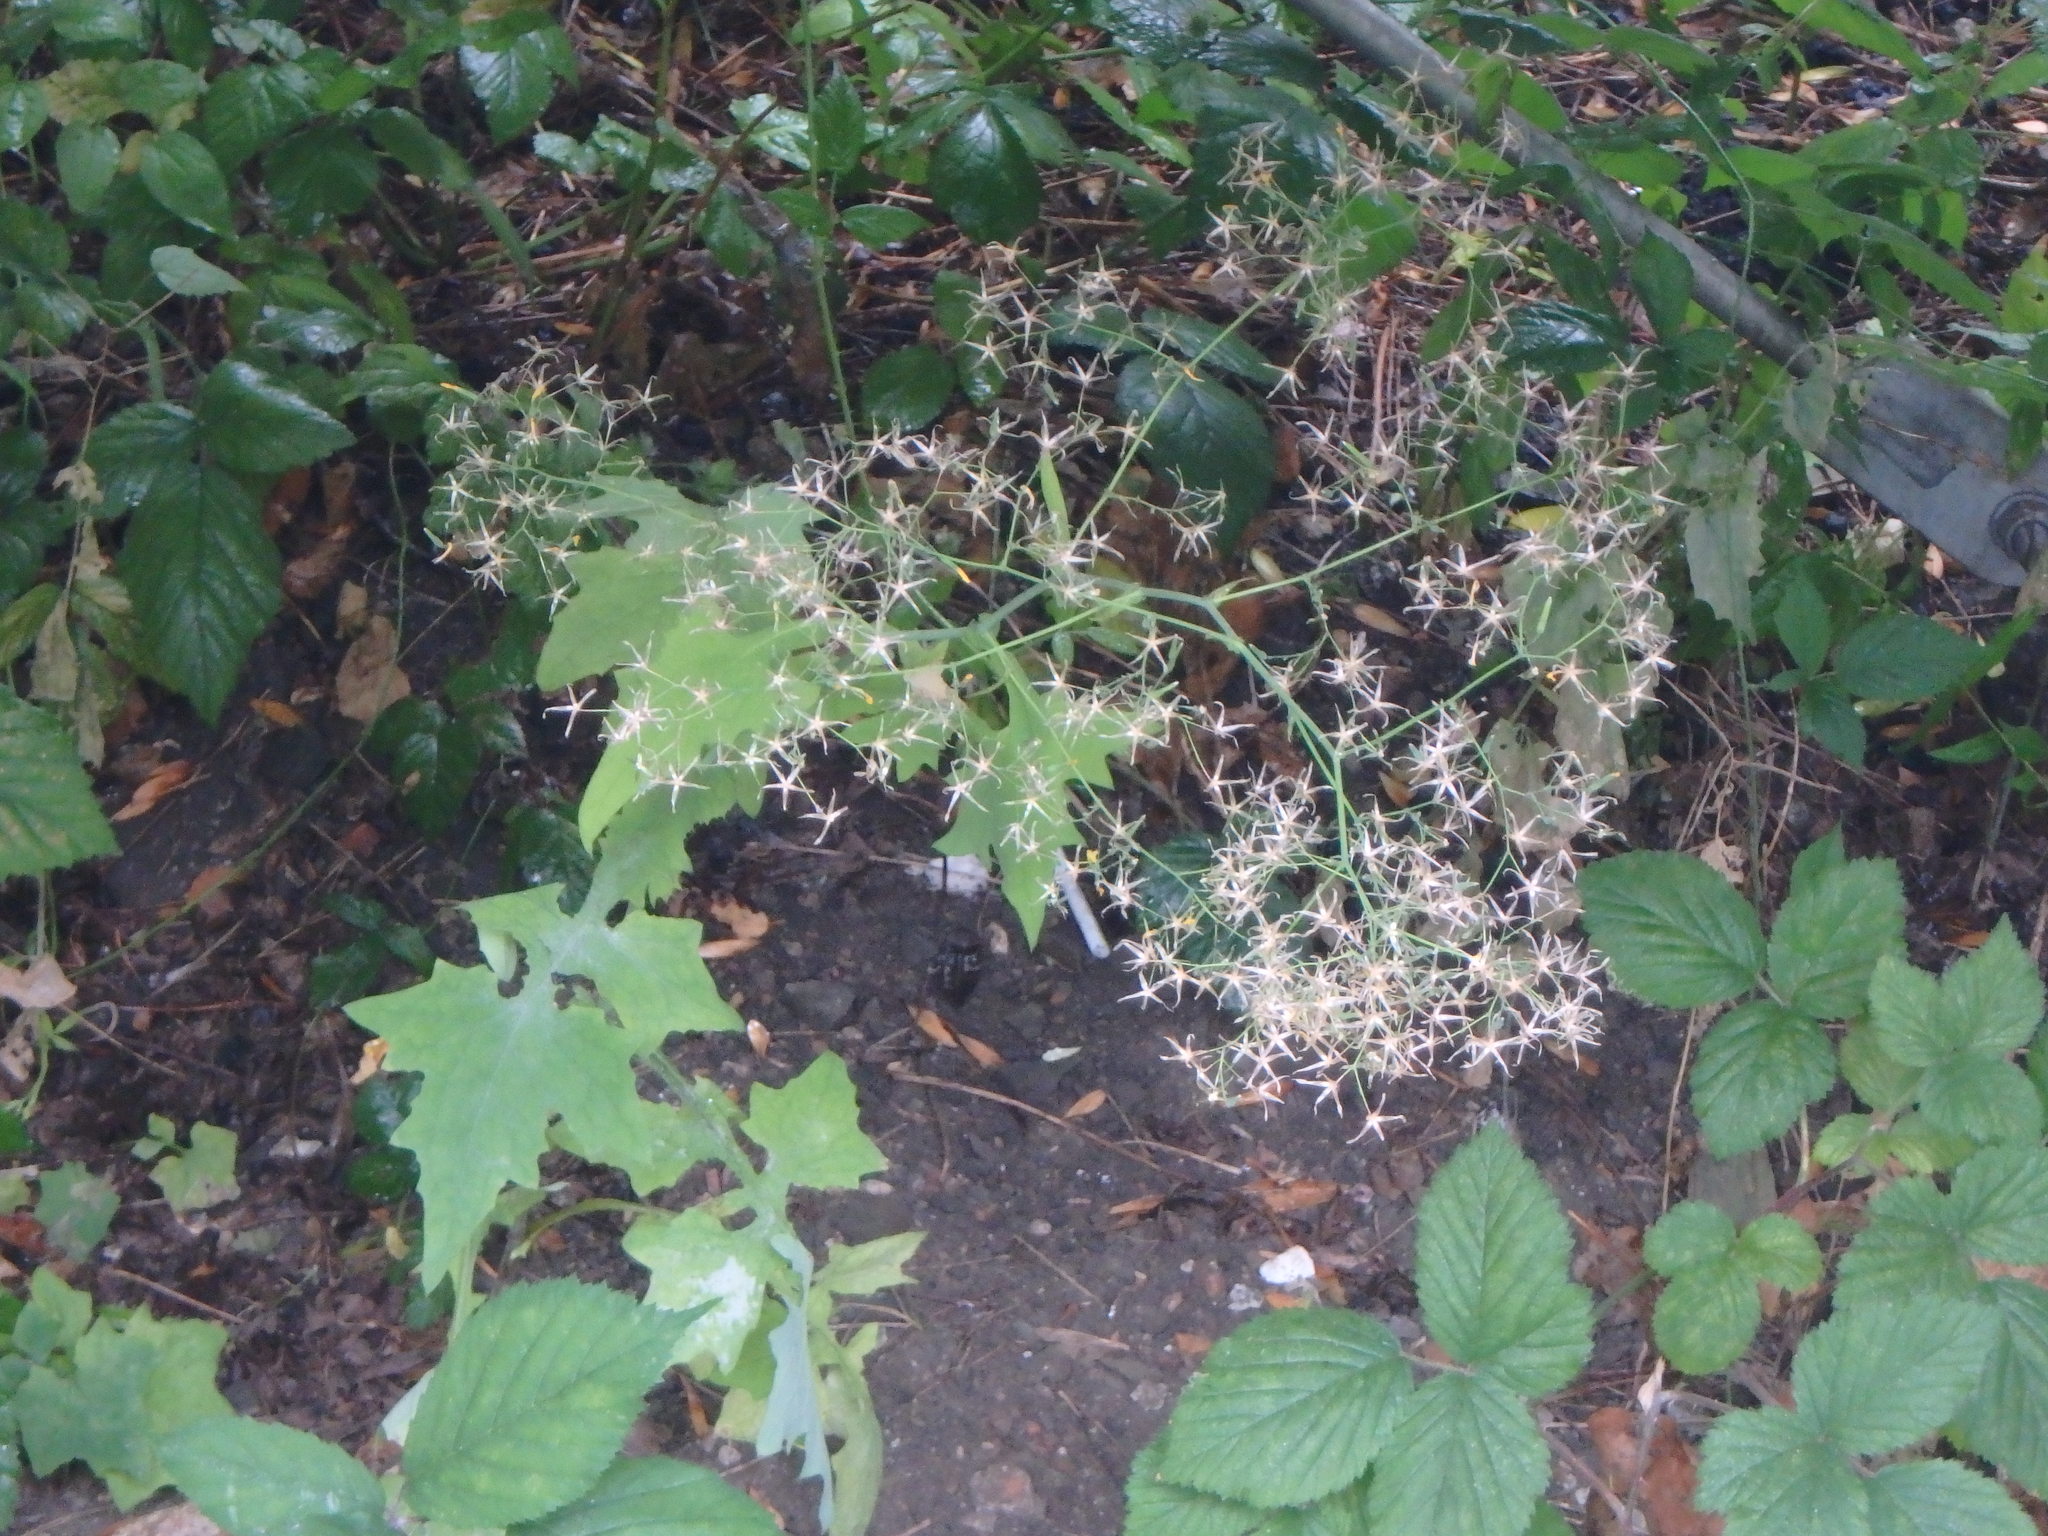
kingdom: Plantae
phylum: Tracheophyta
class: Magnoliopsida
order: Asterales
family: Asteraceae
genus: Mycelis
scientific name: Mycelis muralis
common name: Wall lettuce
